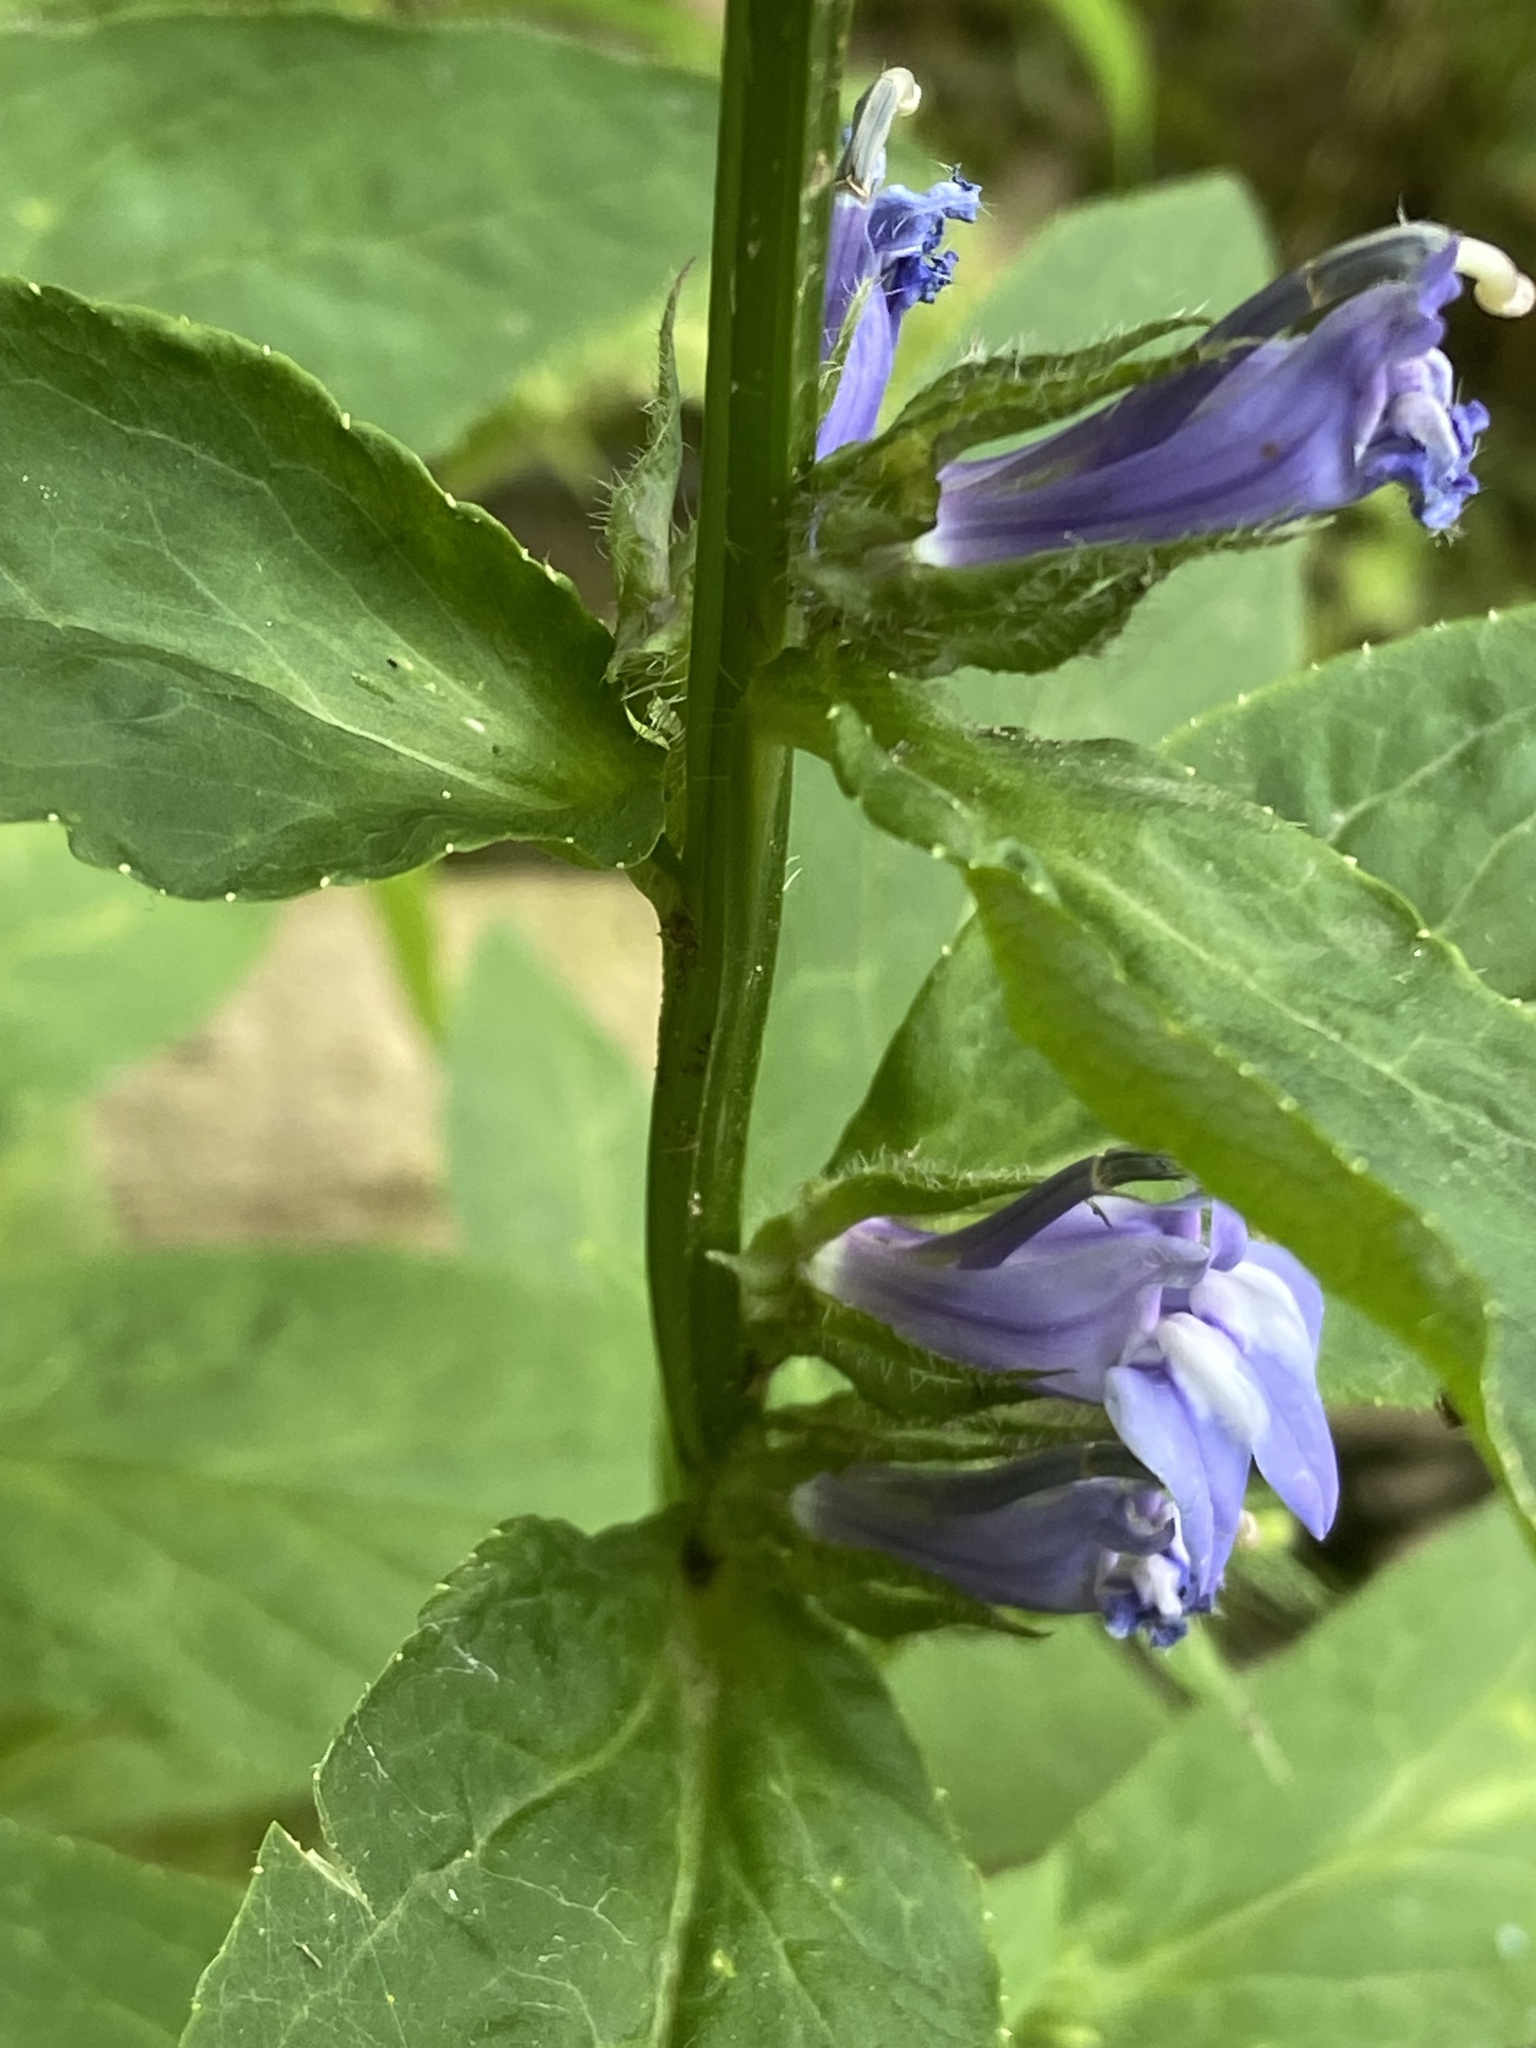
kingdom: Plantae
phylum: Tracheophyta
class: Magnoliopsida
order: Asterales
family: Campanulaceae
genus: Lobelia
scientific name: Lobelia siphilitica
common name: Great lobelia
